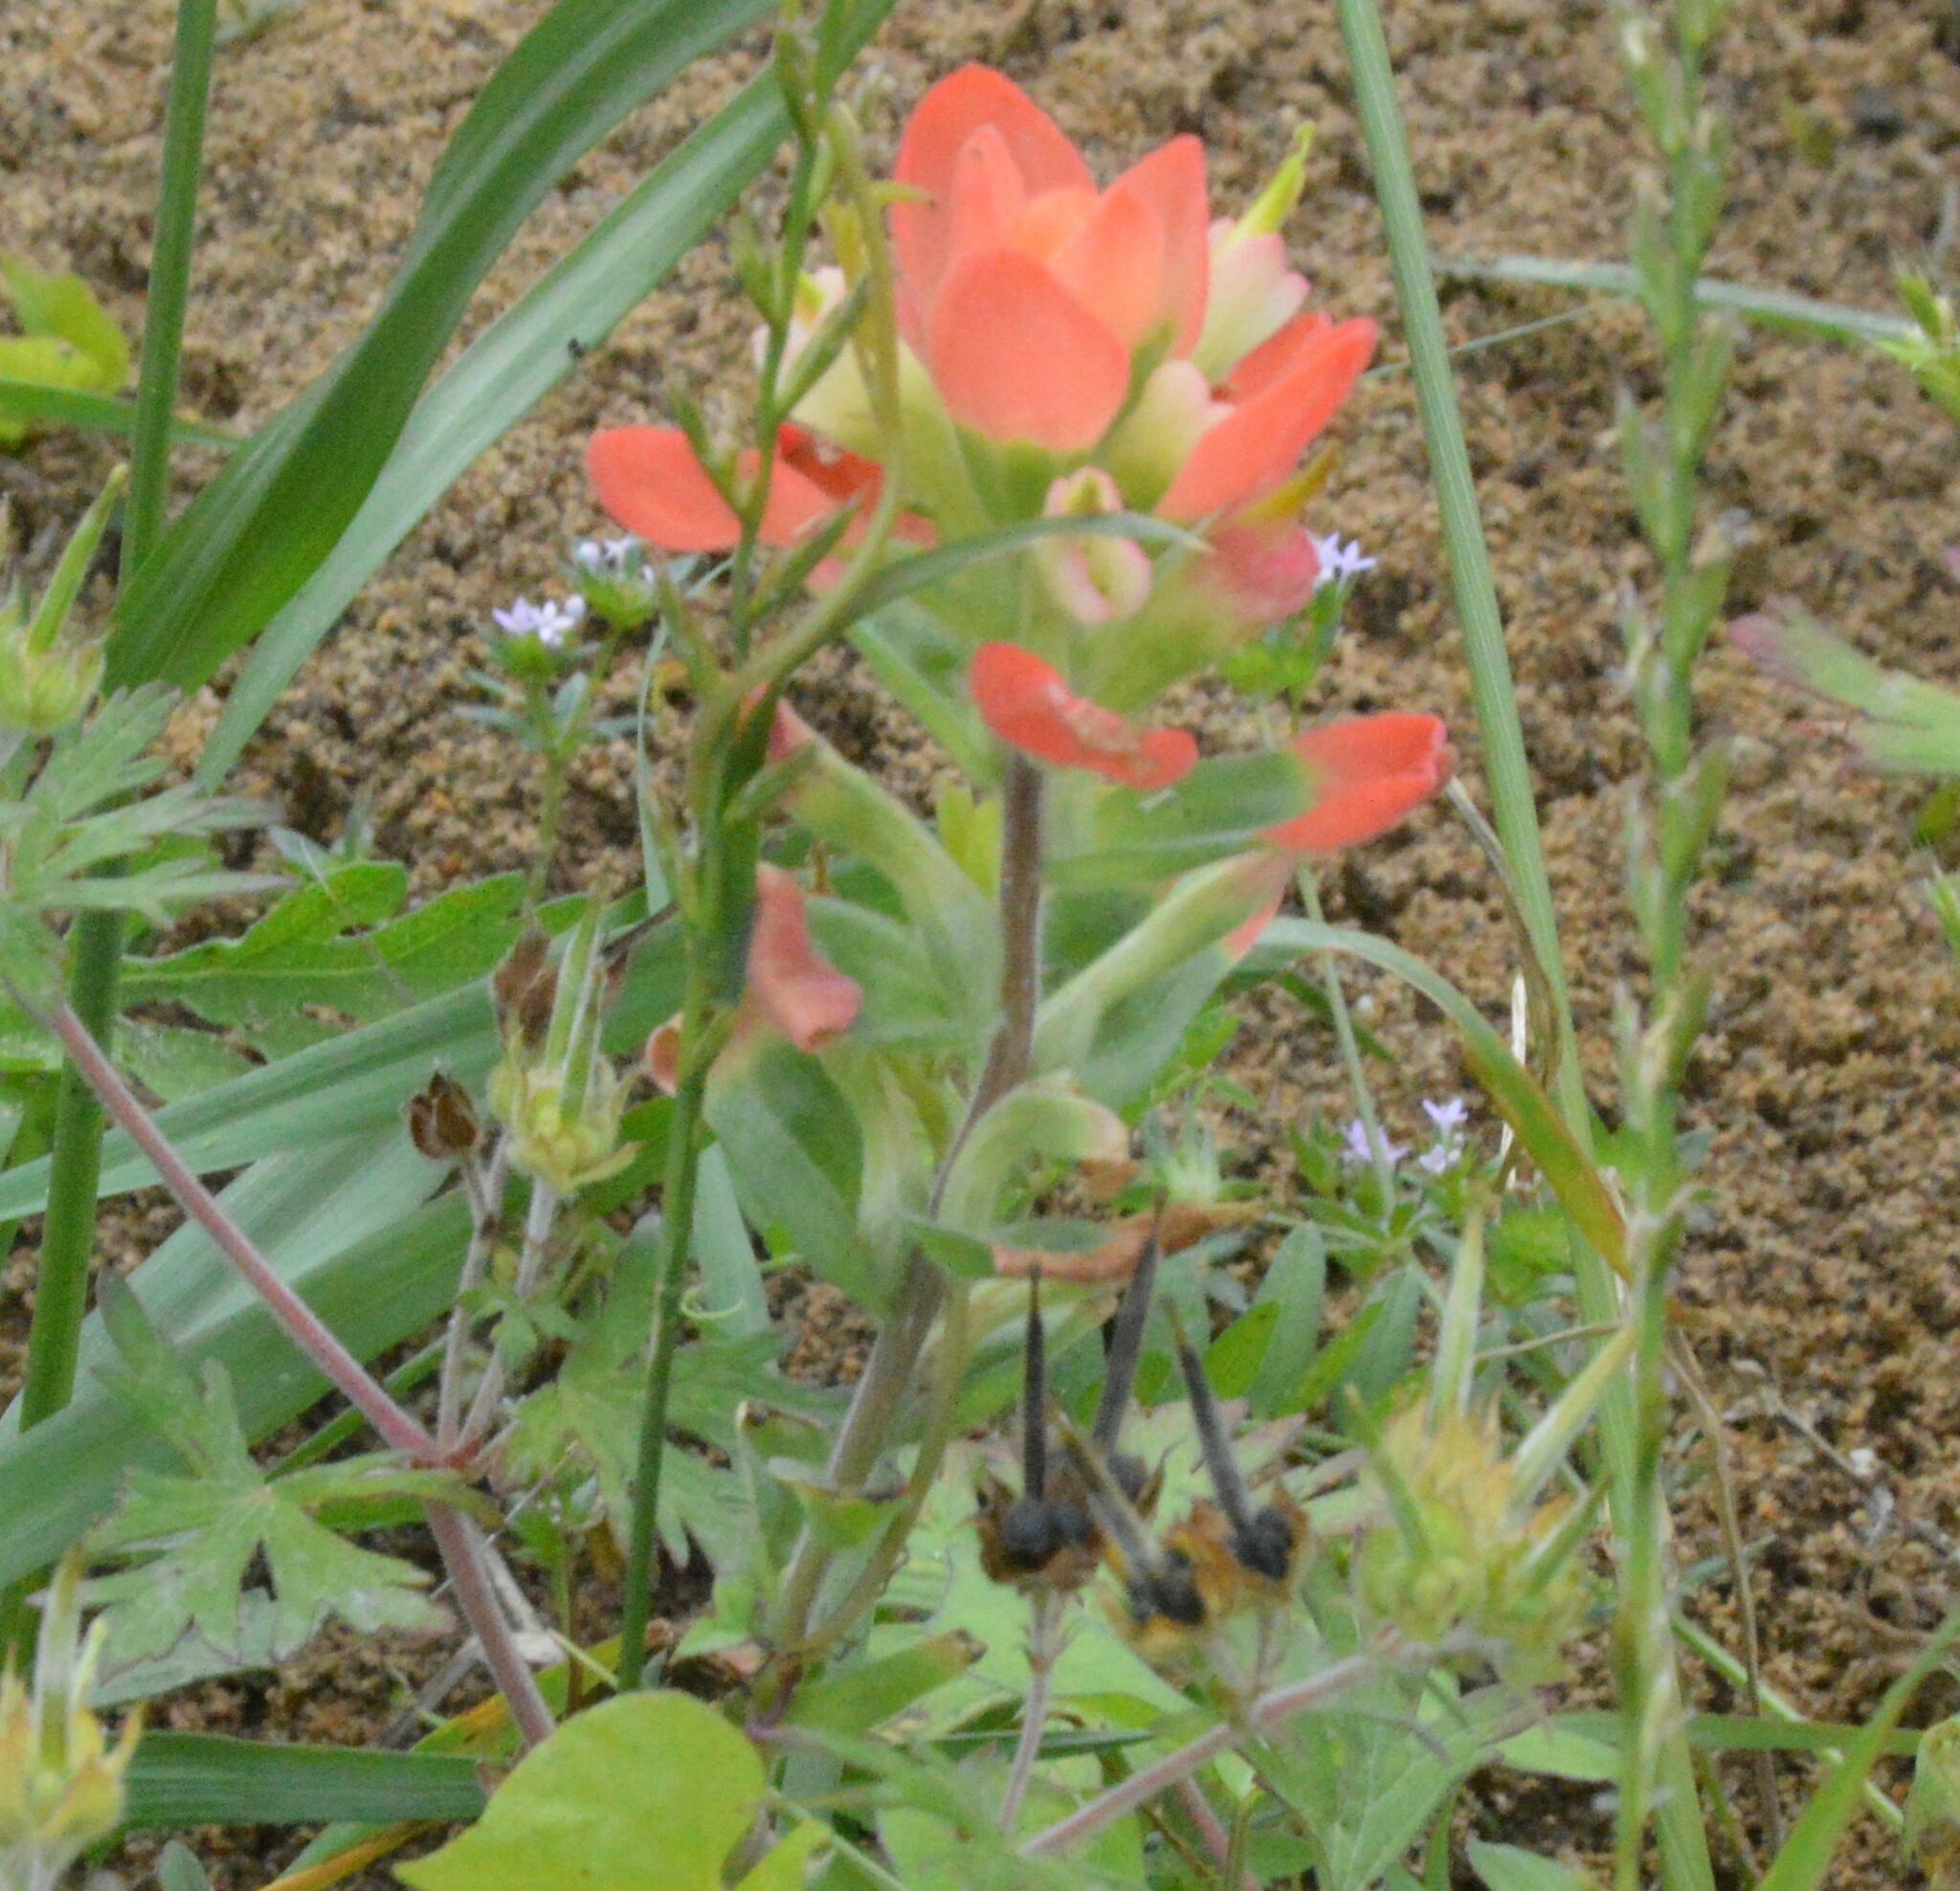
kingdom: Plantae
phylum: Tracheophyta
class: Magnoliopsida
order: Lamiales
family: Orobanchaceae
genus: Castilleja
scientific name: Castilleja indivisa
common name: Texas paintbrush
